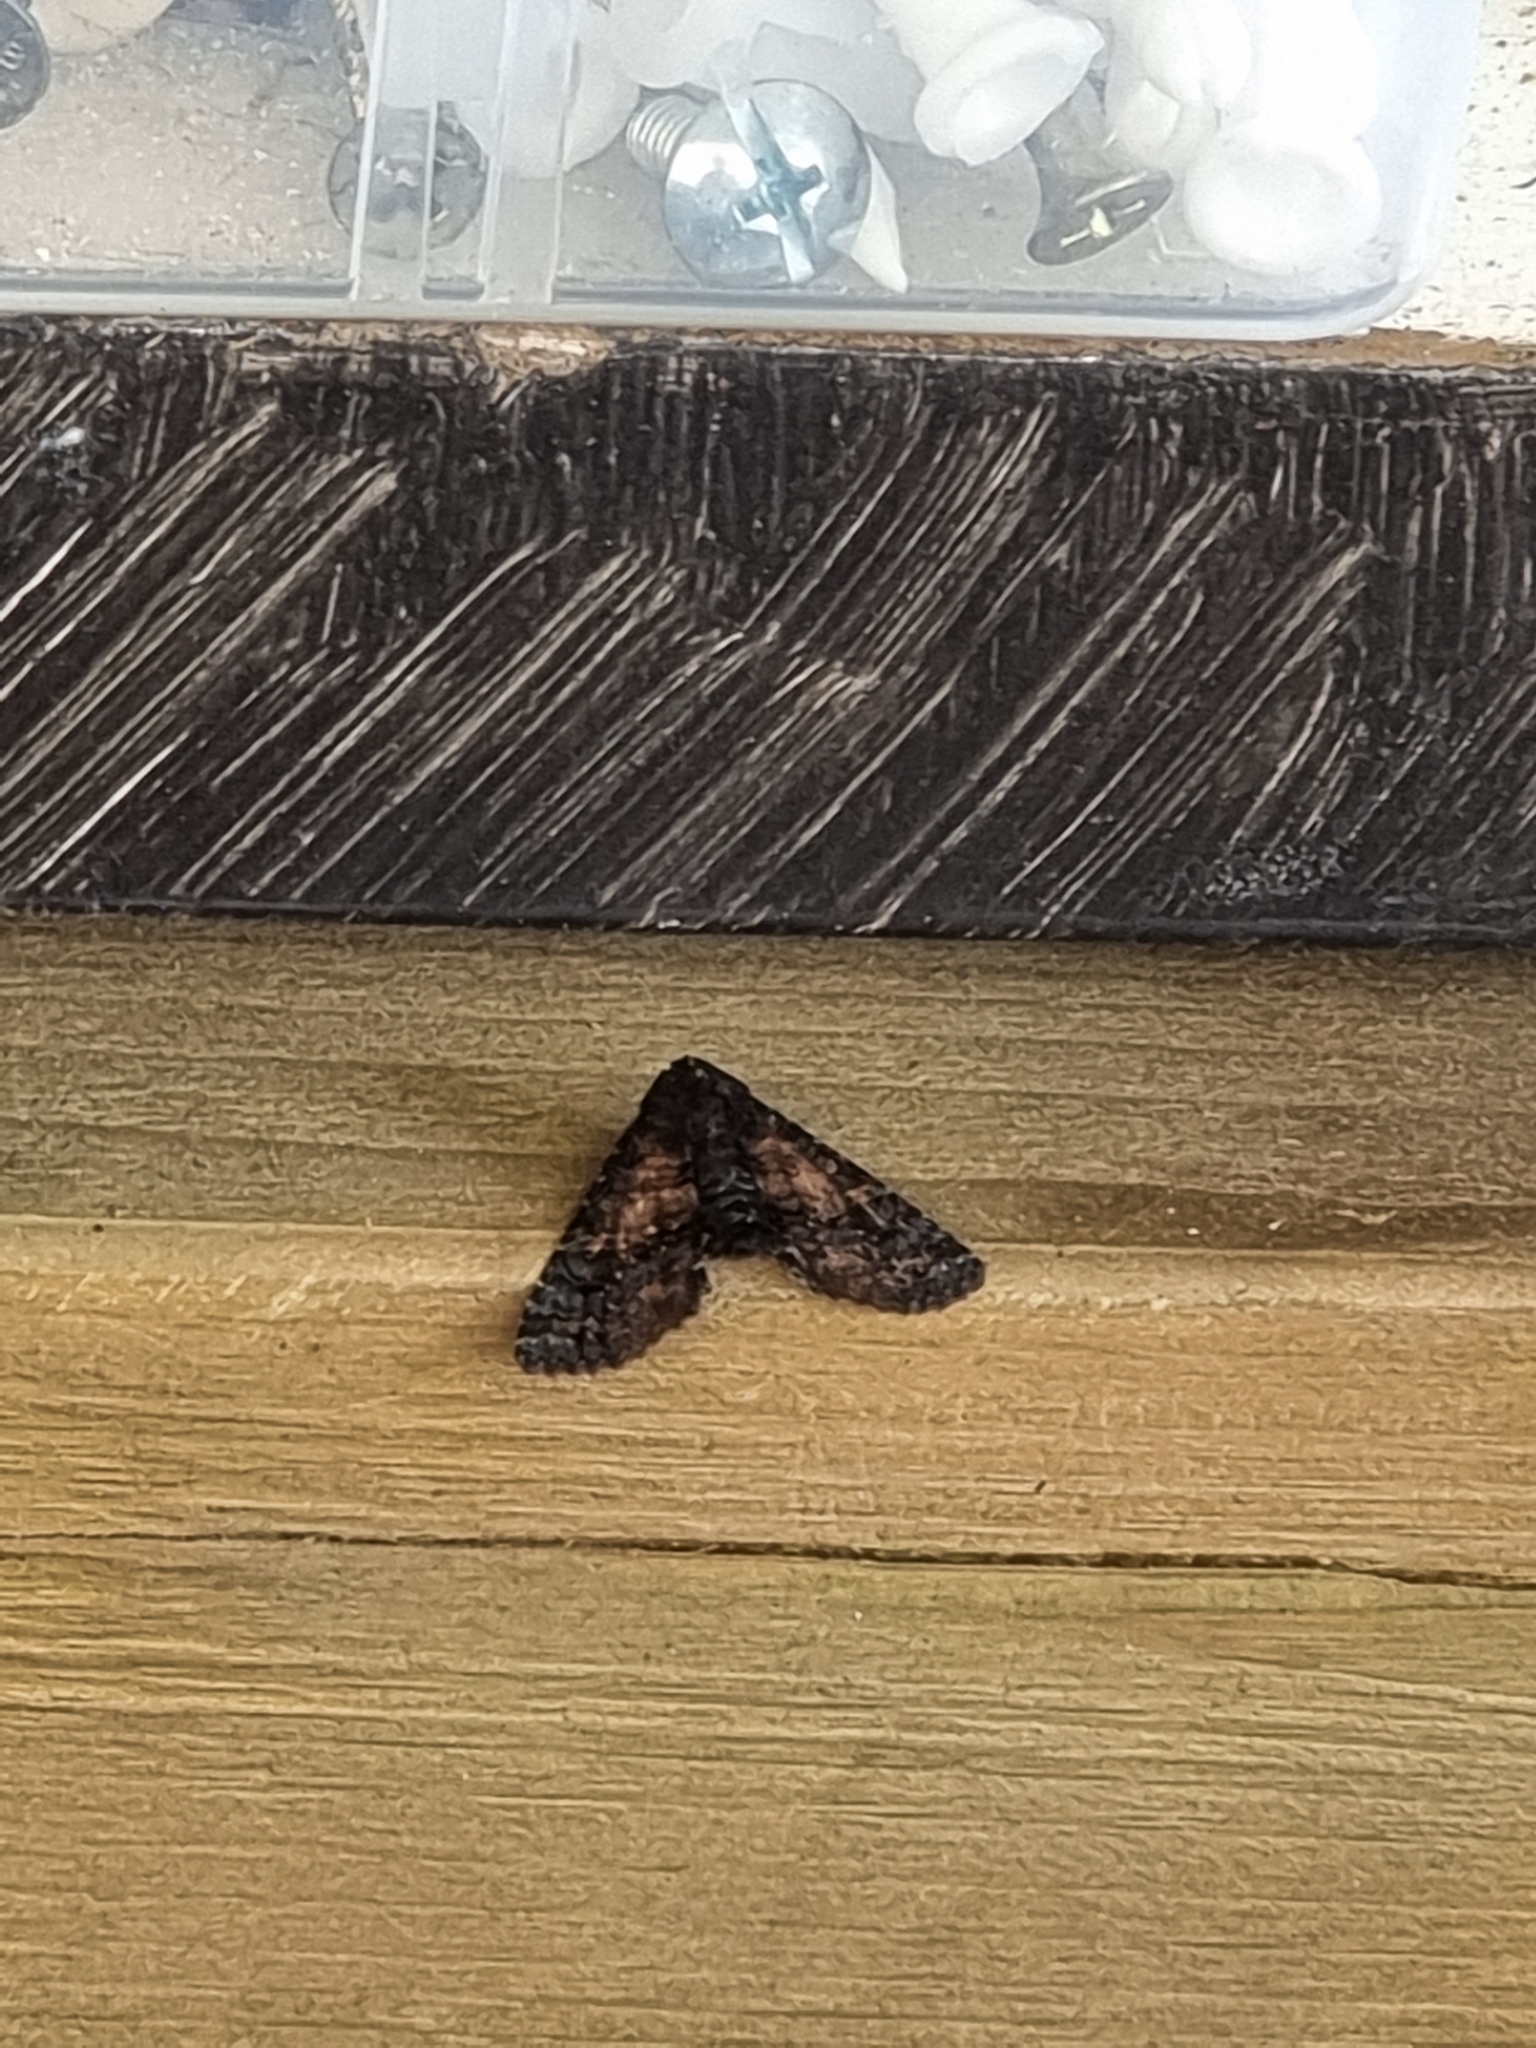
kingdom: Animalia
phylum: Arthropoda
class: Insecta
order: Lepidoptera
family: Euteliidae
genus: Pataeta
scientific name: Pataeta carbo
